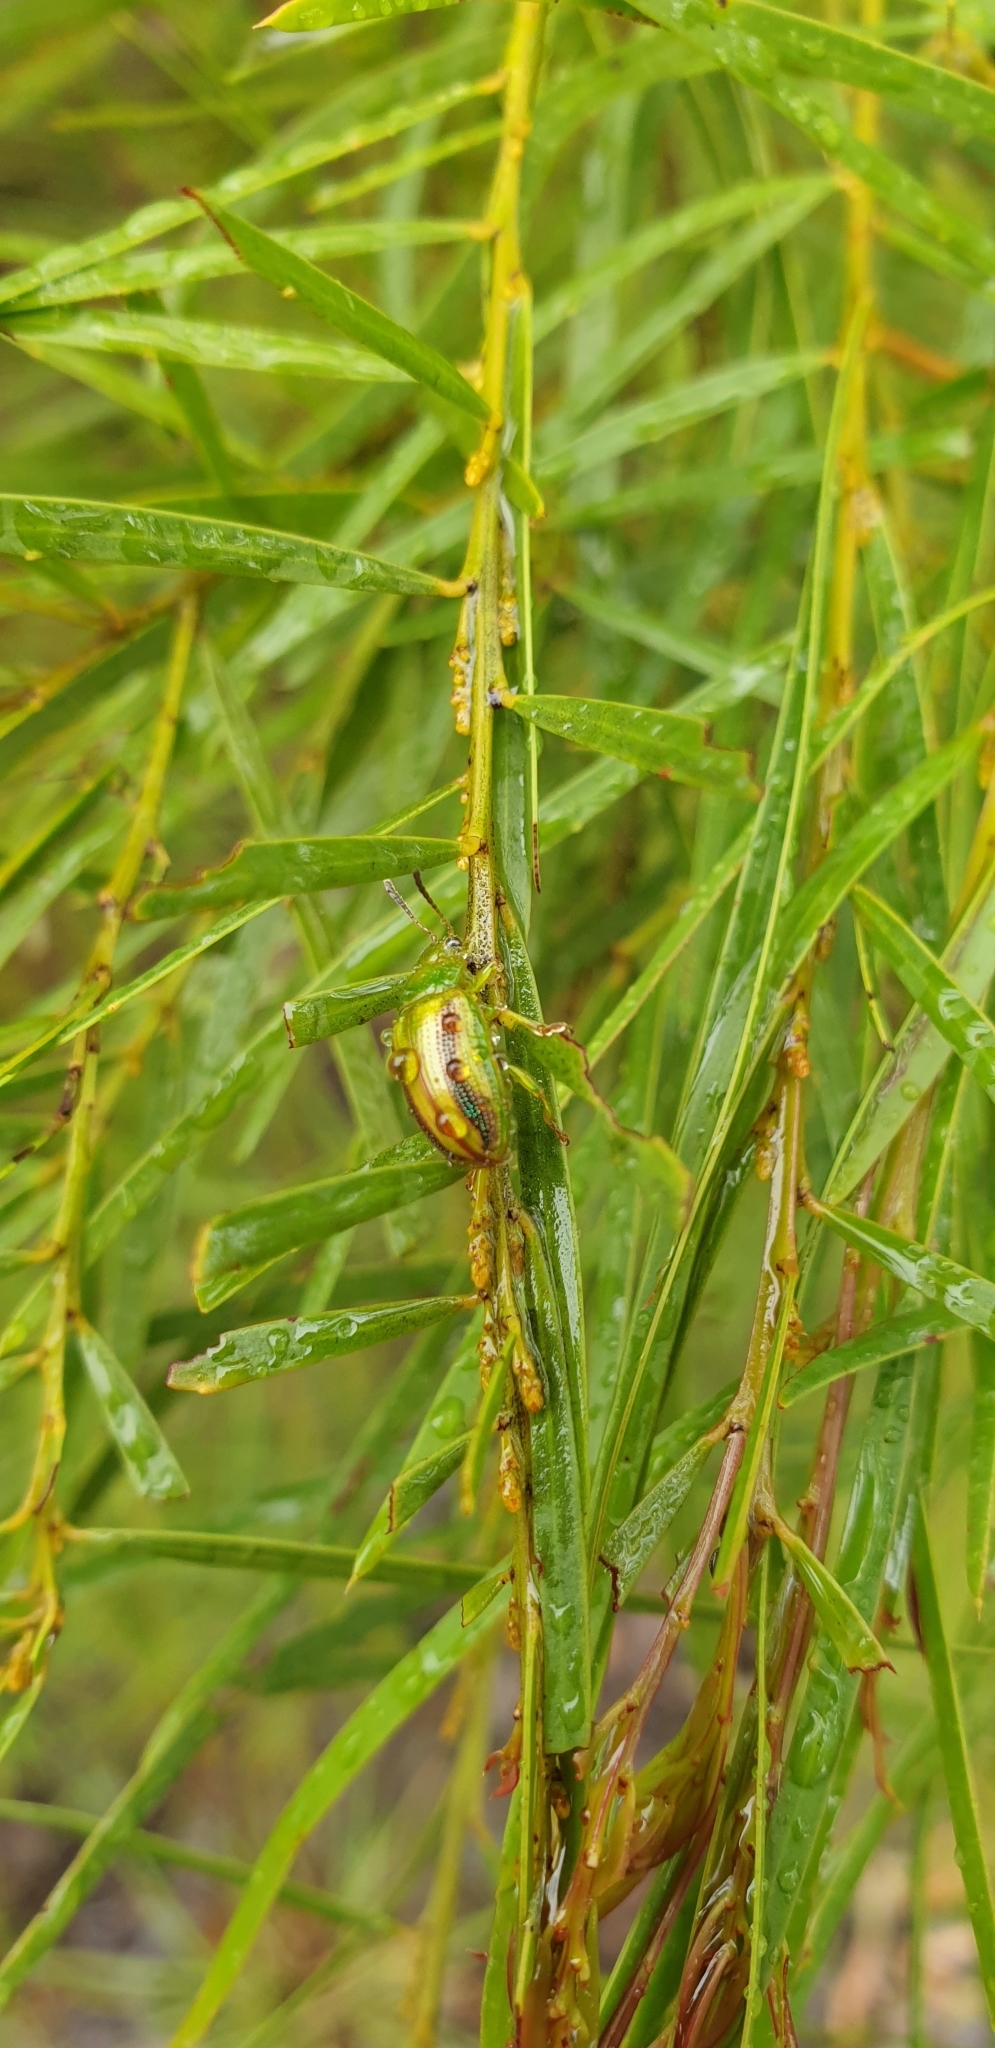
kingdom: Animalia
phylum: Arthropoda
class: Insecta
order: Coleoptera
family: Chrysomelidae
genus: Calomela
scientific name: Calomela
